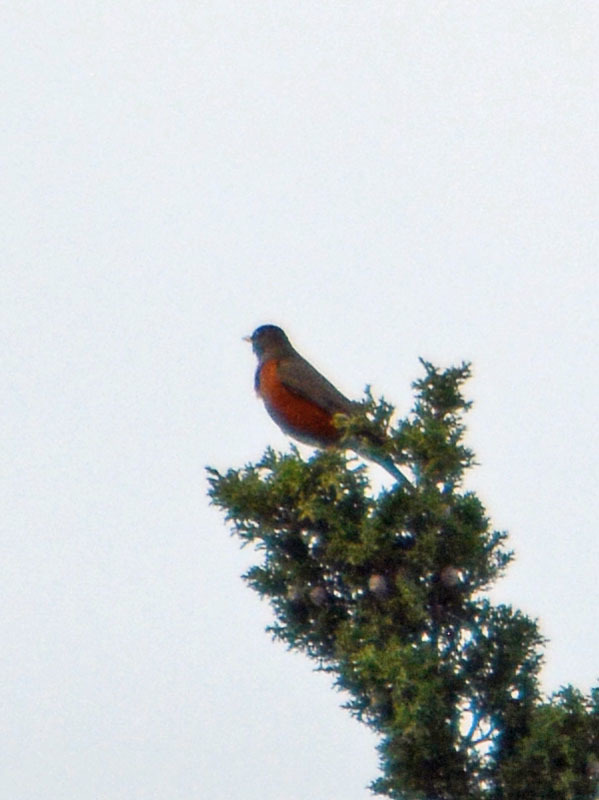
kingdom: Animalia
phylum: Chordata
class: Aves
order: Passeriformes
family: Turdidae
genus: Turdus
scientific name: Turdus migratorius
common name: American robin
